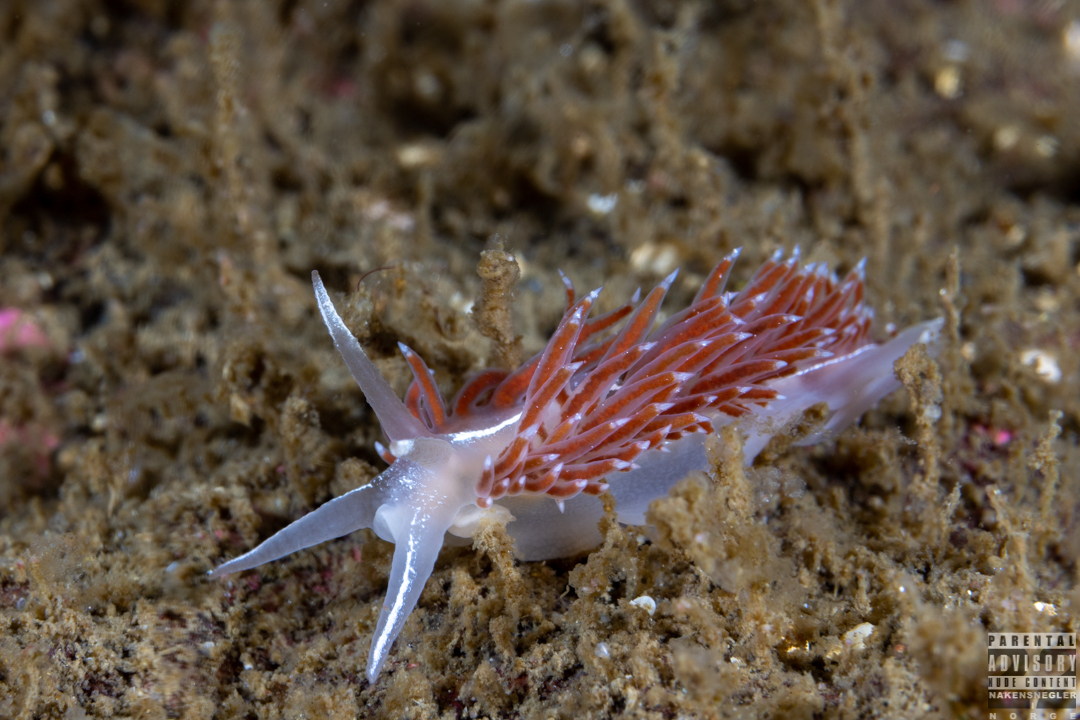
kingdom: Animalia
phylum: Mollusca
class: Gastropoda
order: Nudibranchia
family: Coryphellidae
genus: Coryphella
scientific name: Coryphella monicae
